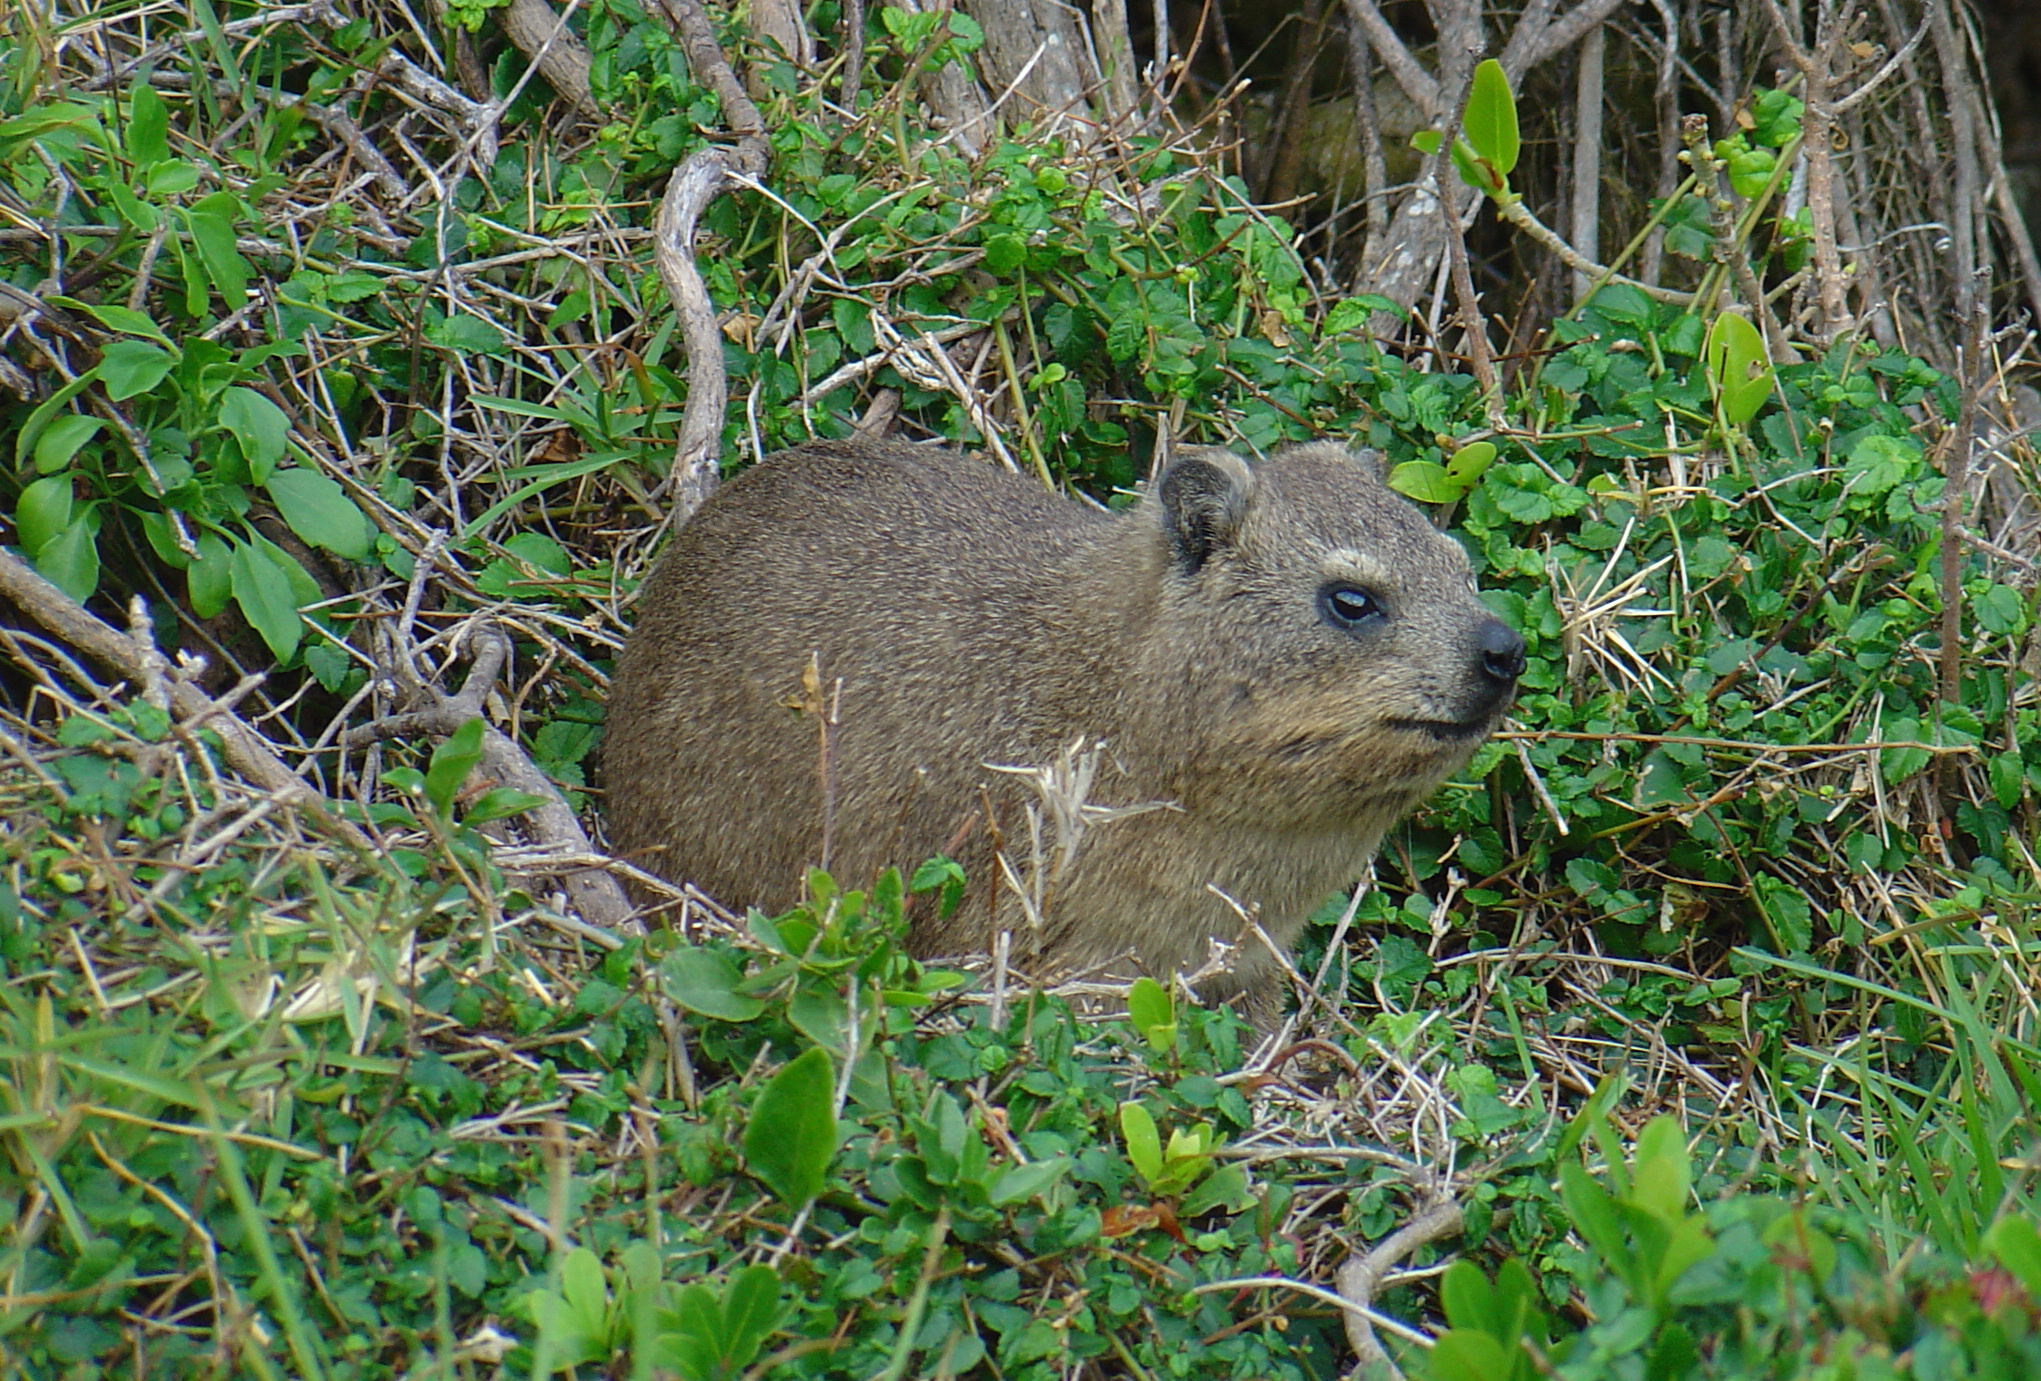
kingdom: Animalia
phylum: Chordata
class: Mammalia
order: Hyracoidea
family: Procaviidae
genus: Procavia
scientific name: Procavia capensis
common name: Rock hyrax
